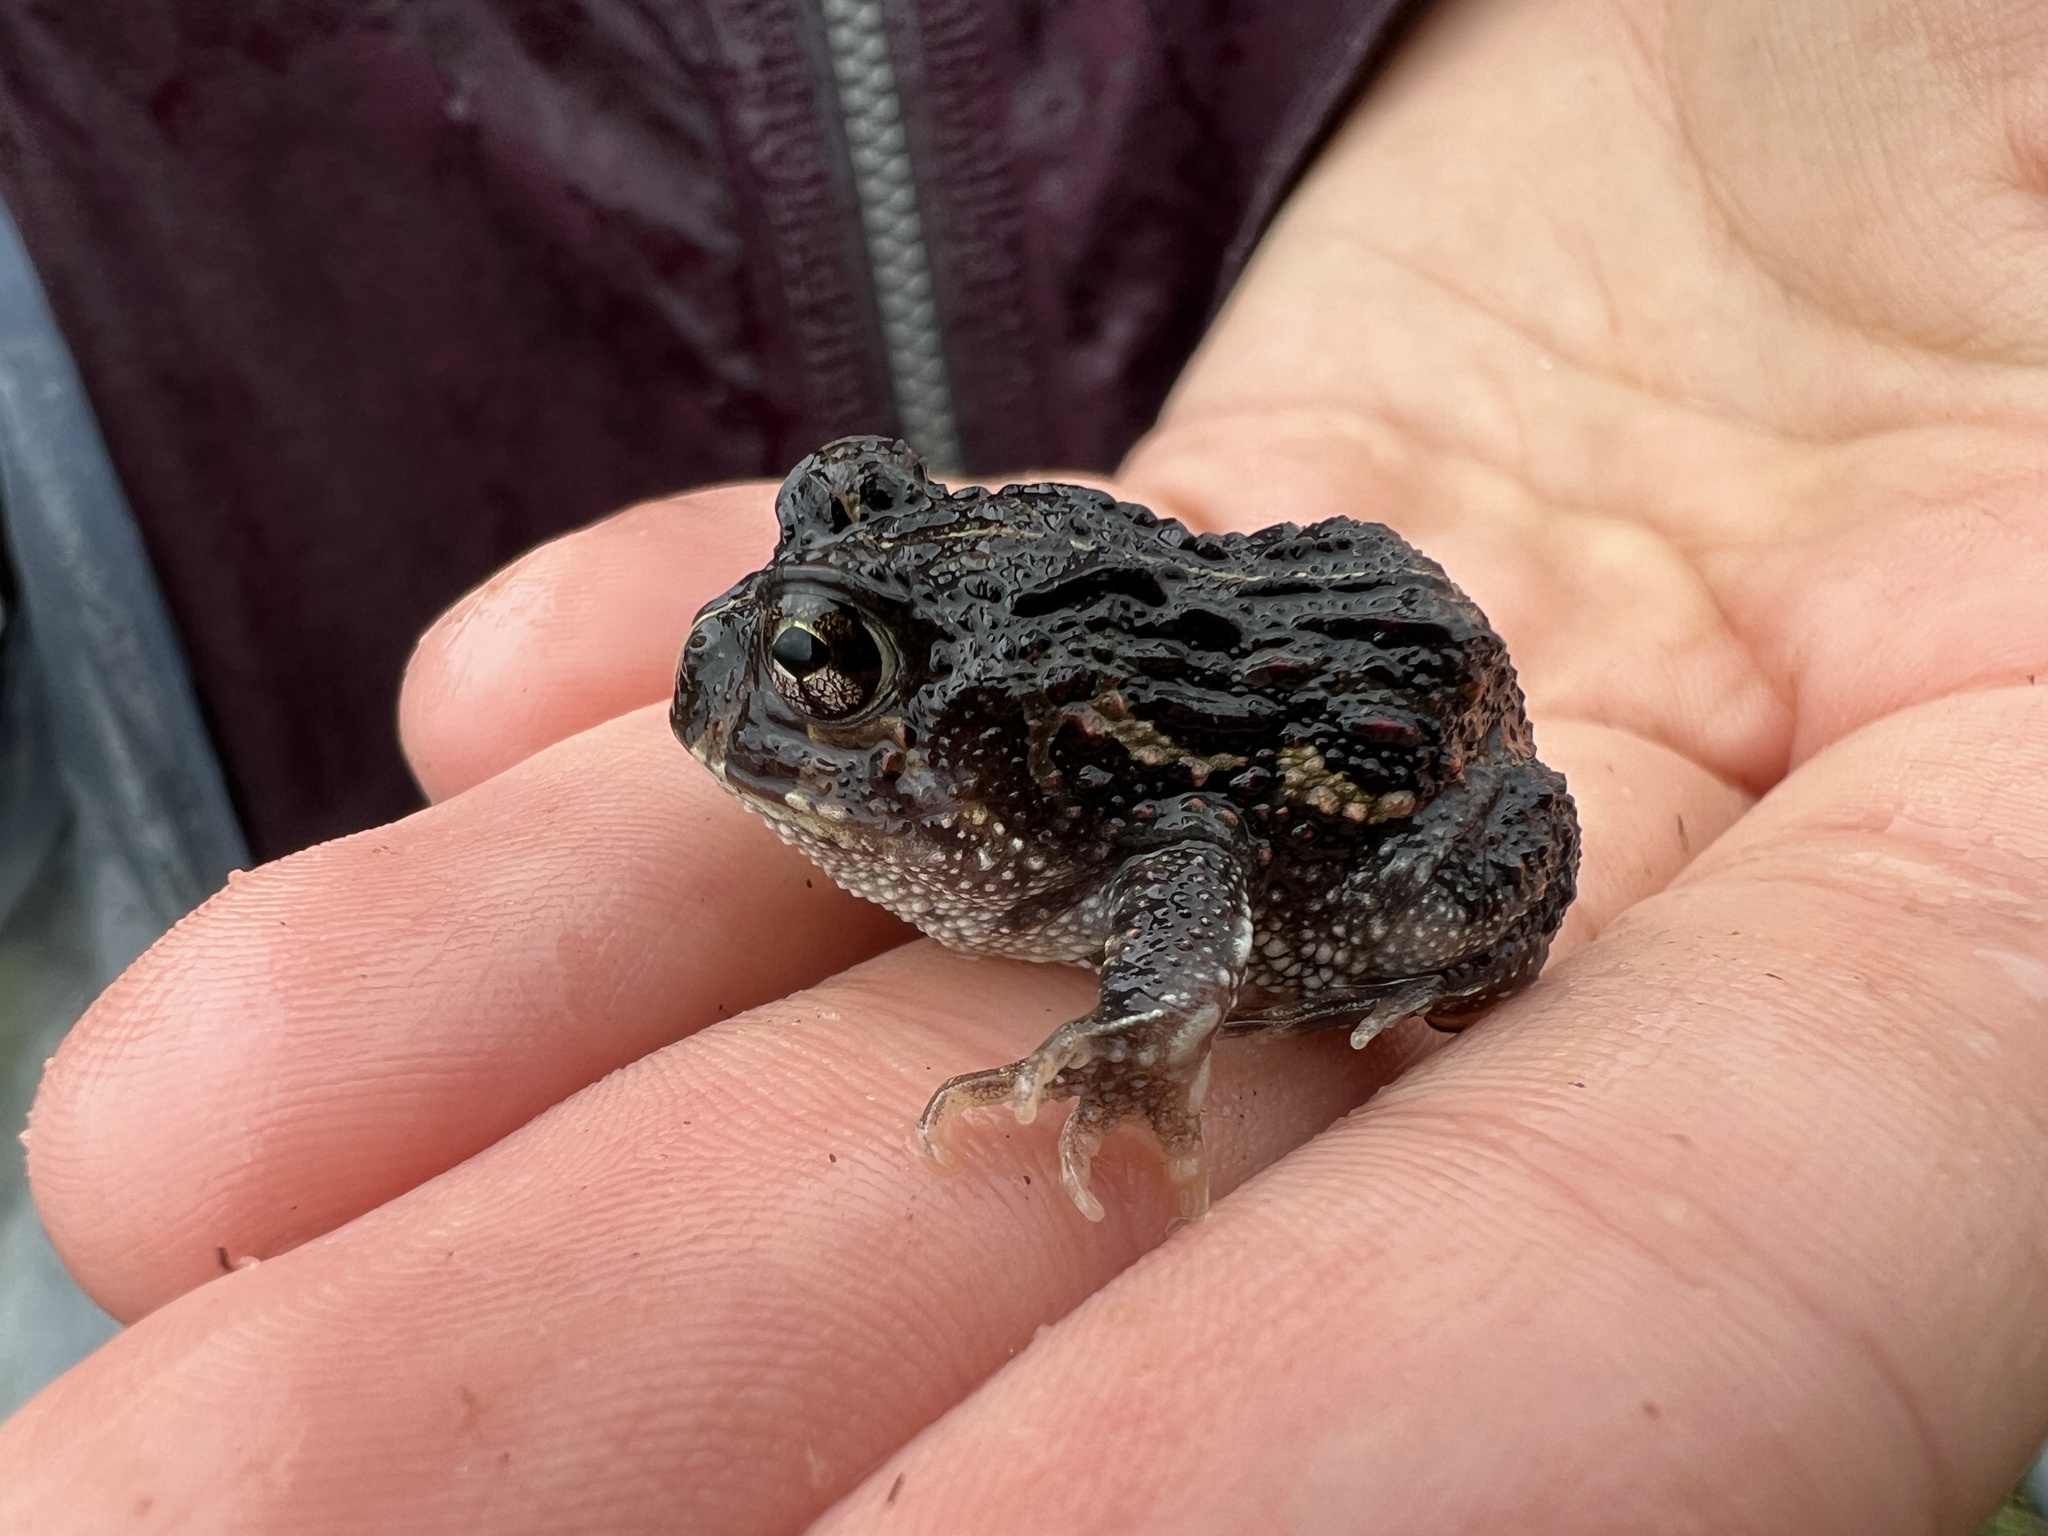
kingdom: Animalia
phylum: Chordata
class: Amphibia
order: Anura
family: Odontophrynidae
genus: Odontophrynus
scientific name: Odontophrynus
